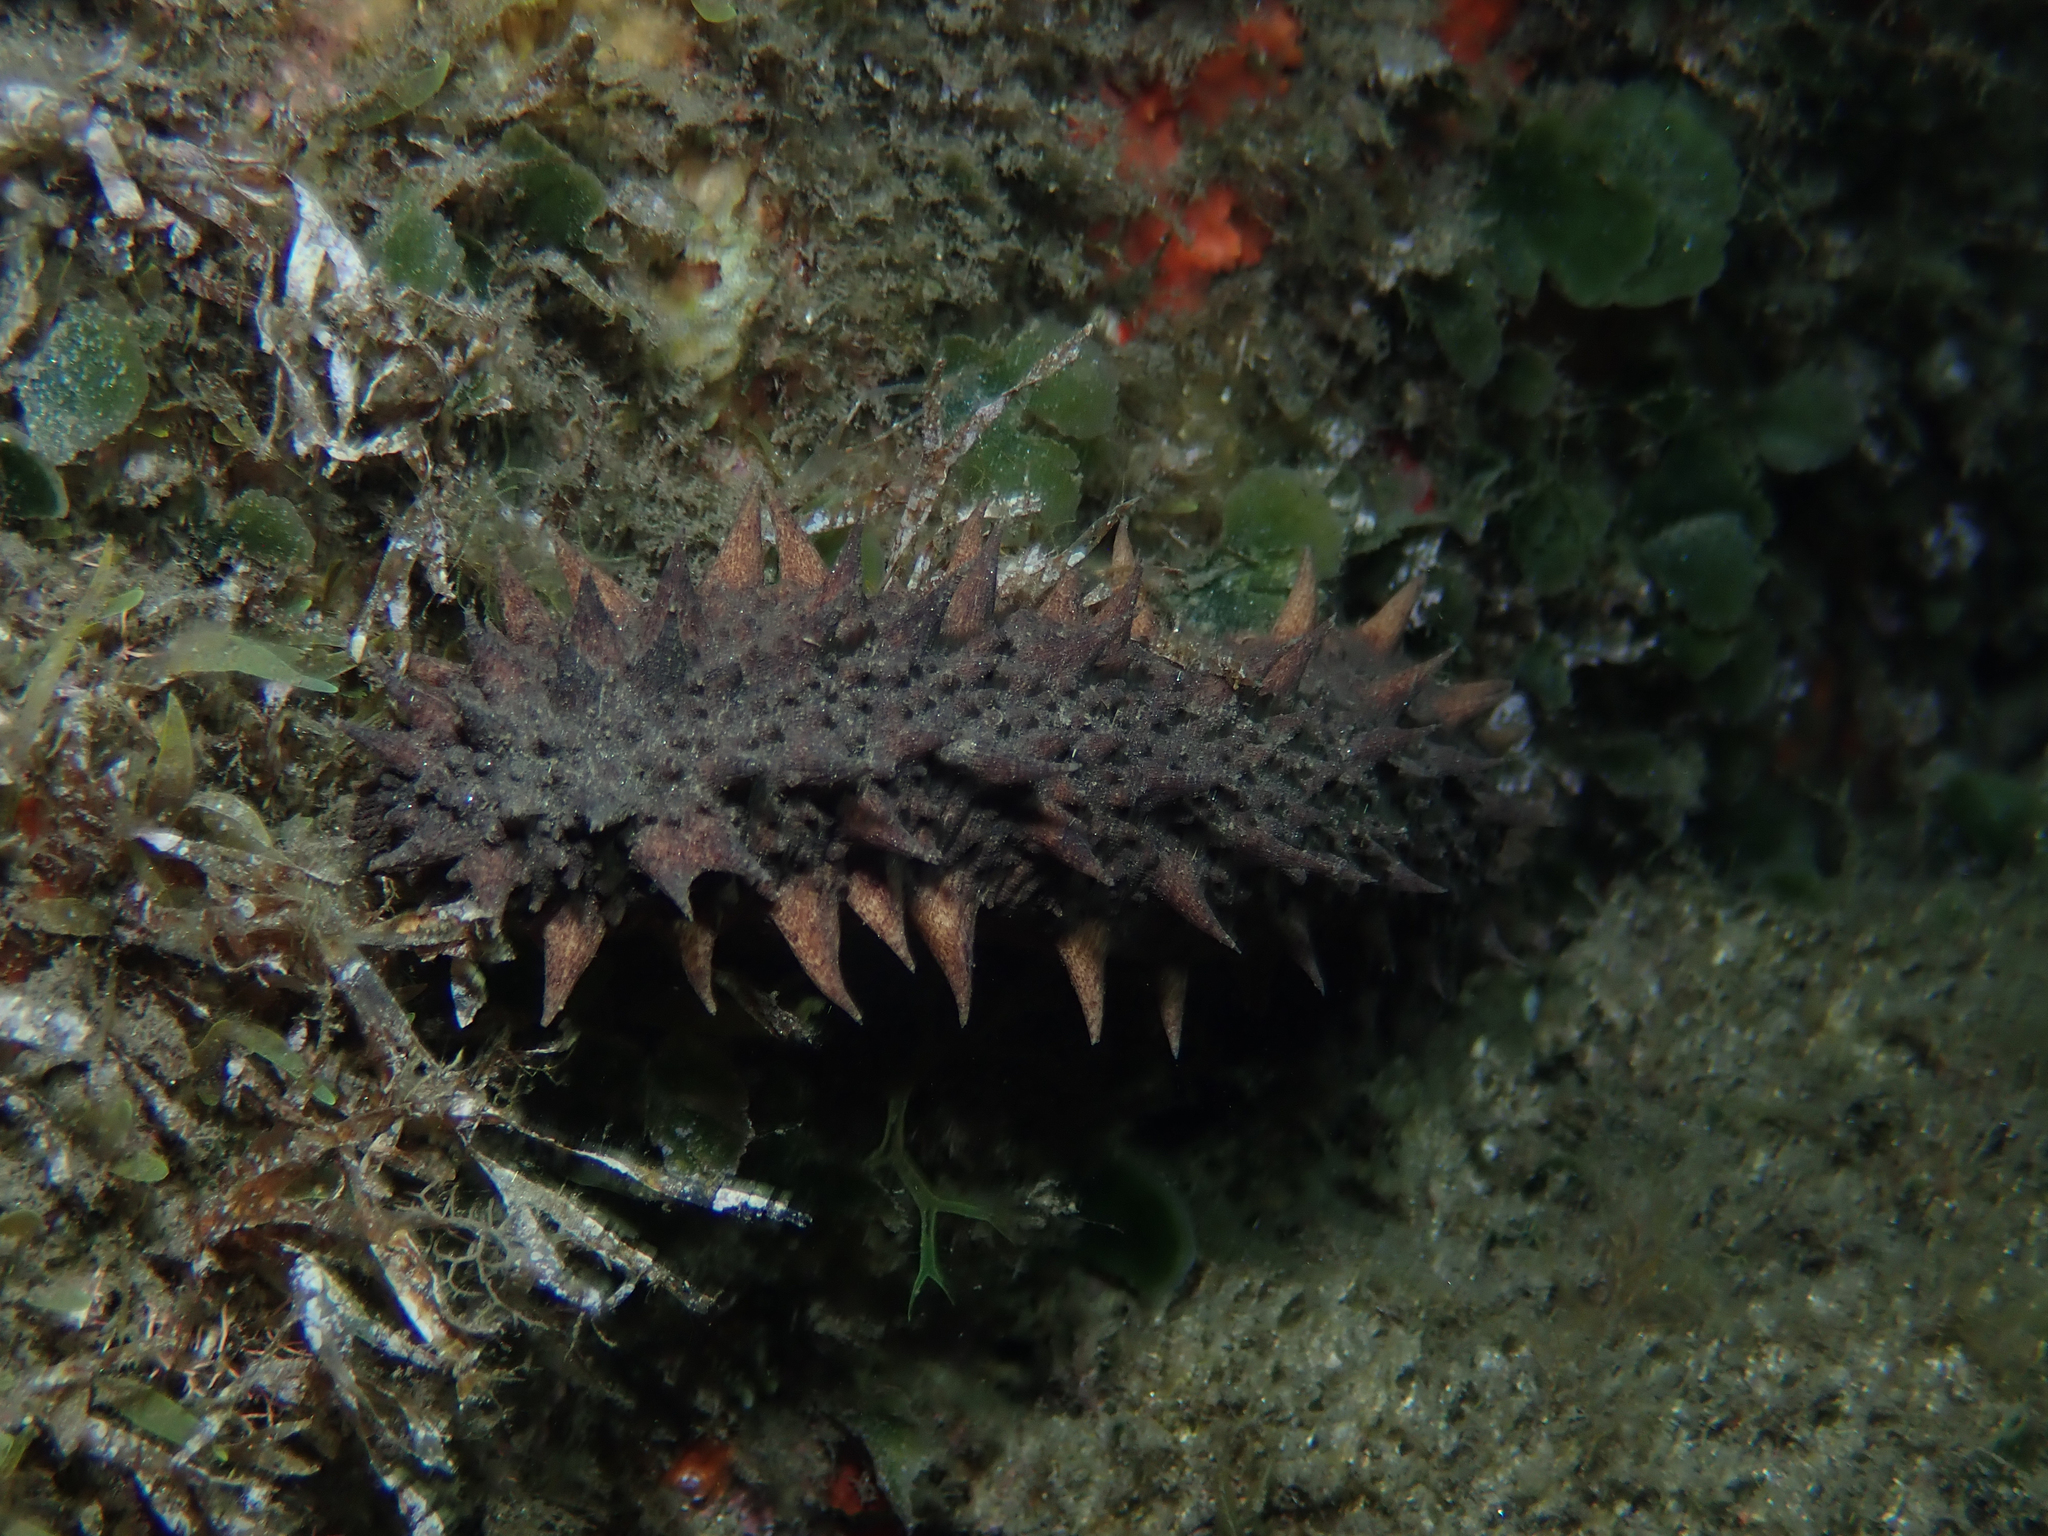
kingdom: Animalia
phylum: Echinodermata
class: Holothuroidea
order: Holothuriida
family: Holothuriidae
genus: Holothuria
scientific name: Holothuria tubulosa
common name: Cotton-spinner
